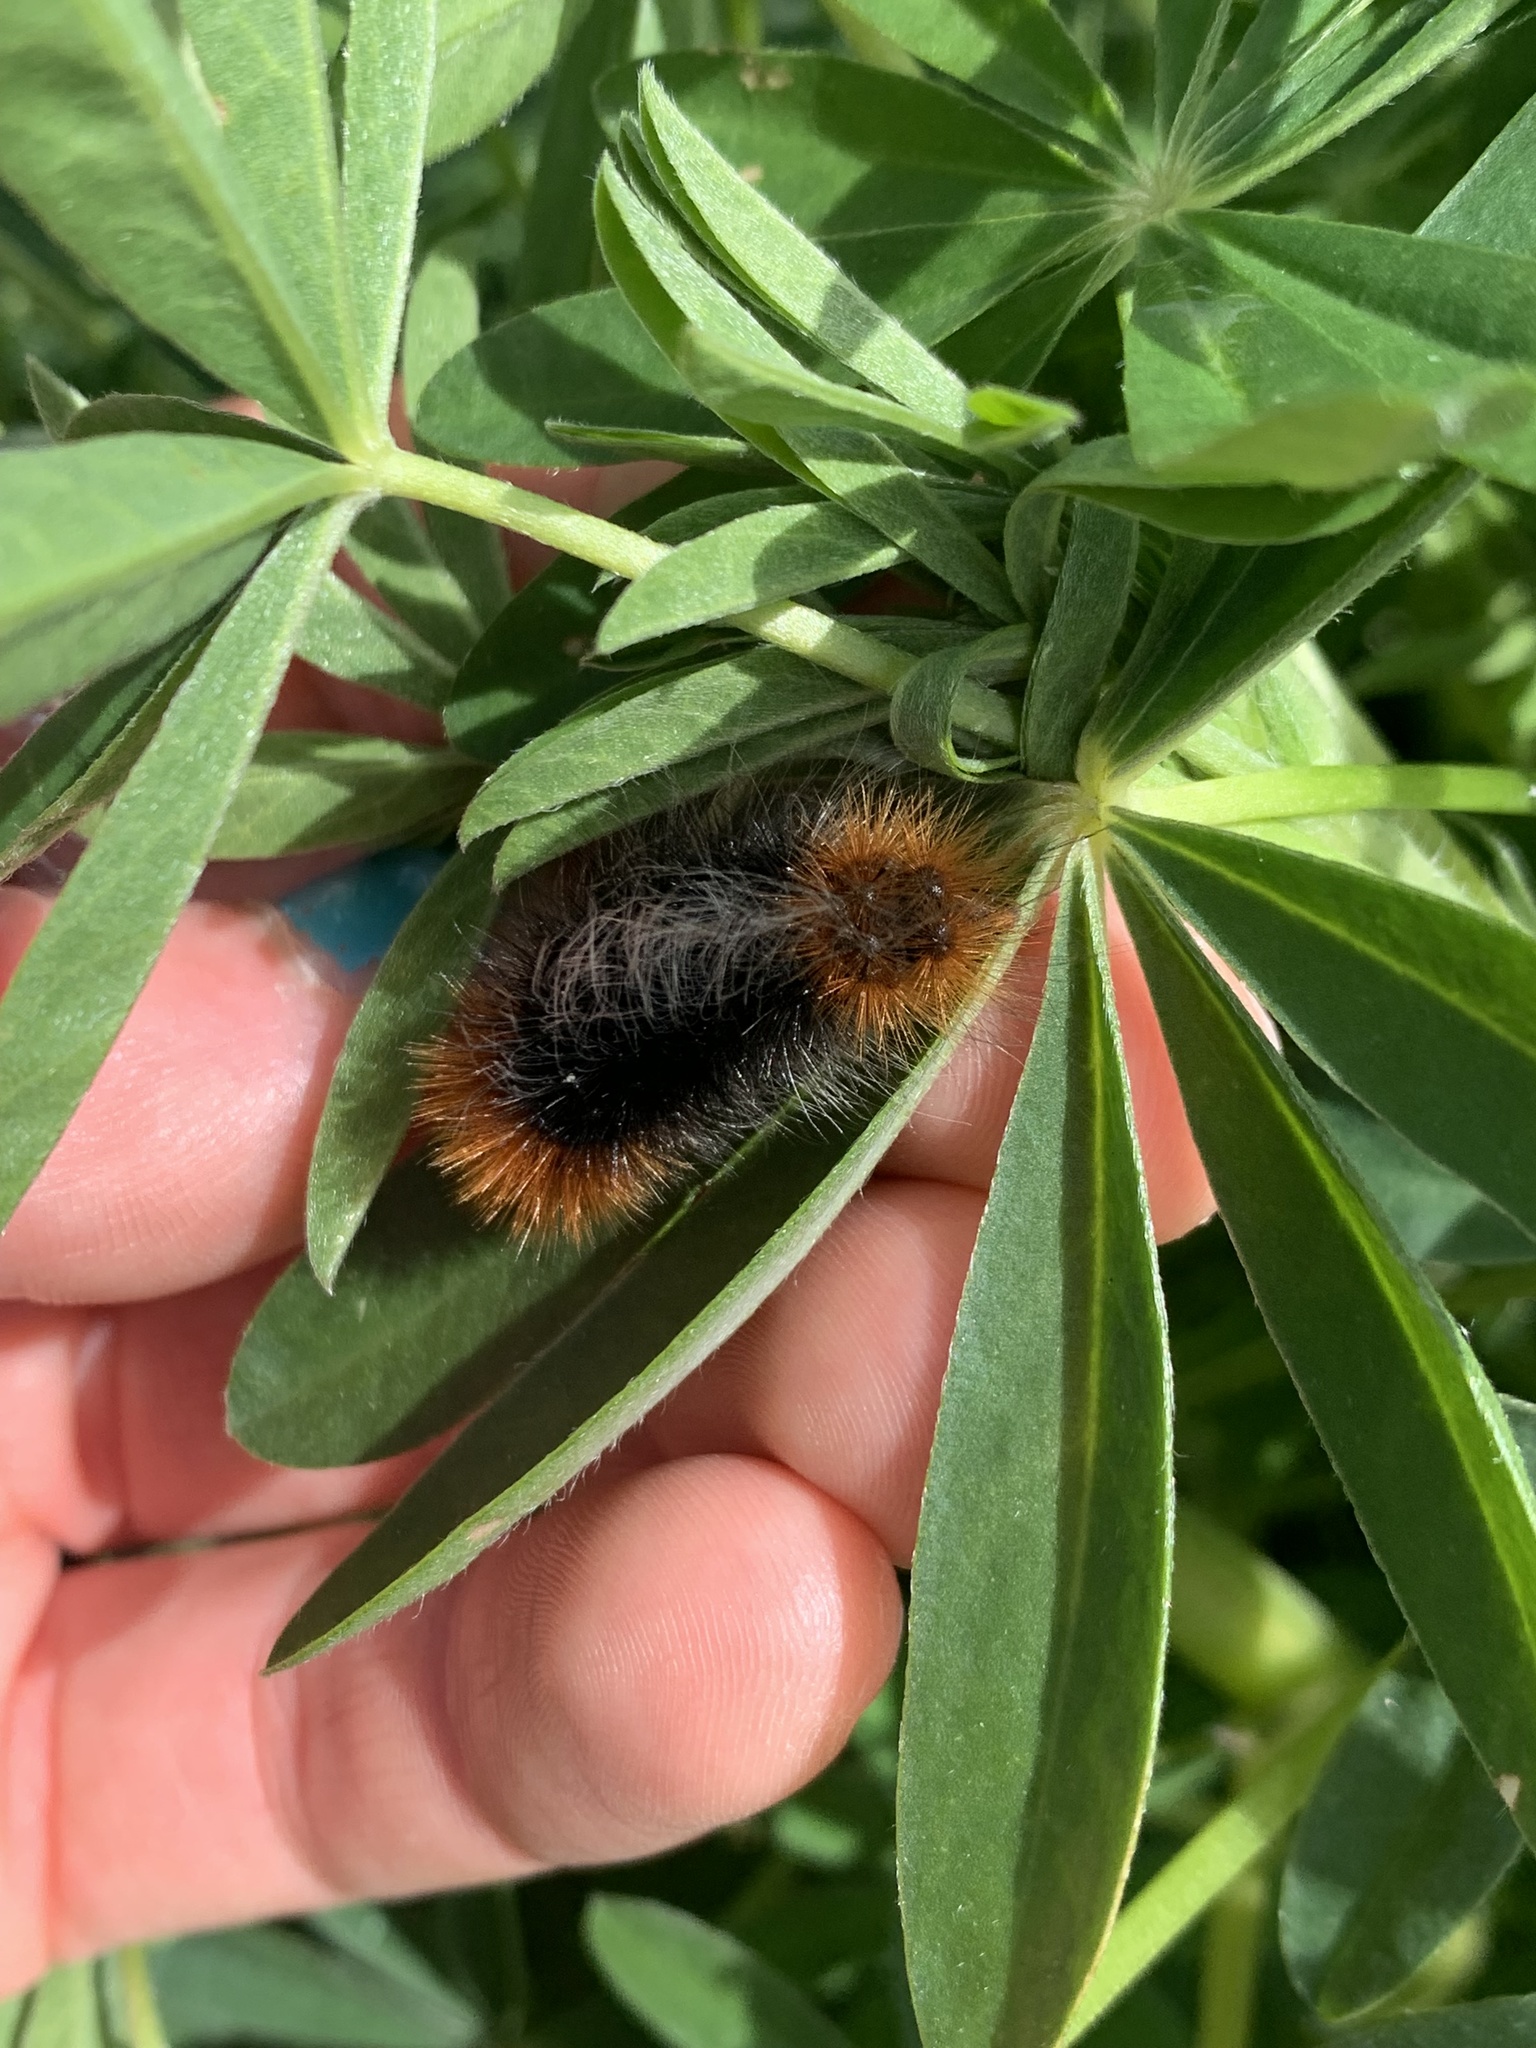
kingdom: Animalia
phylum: Arthropoda
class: Insecta
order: Lepidoptera
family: Erebidae
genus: Arctia
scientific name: Arctia tigrina
